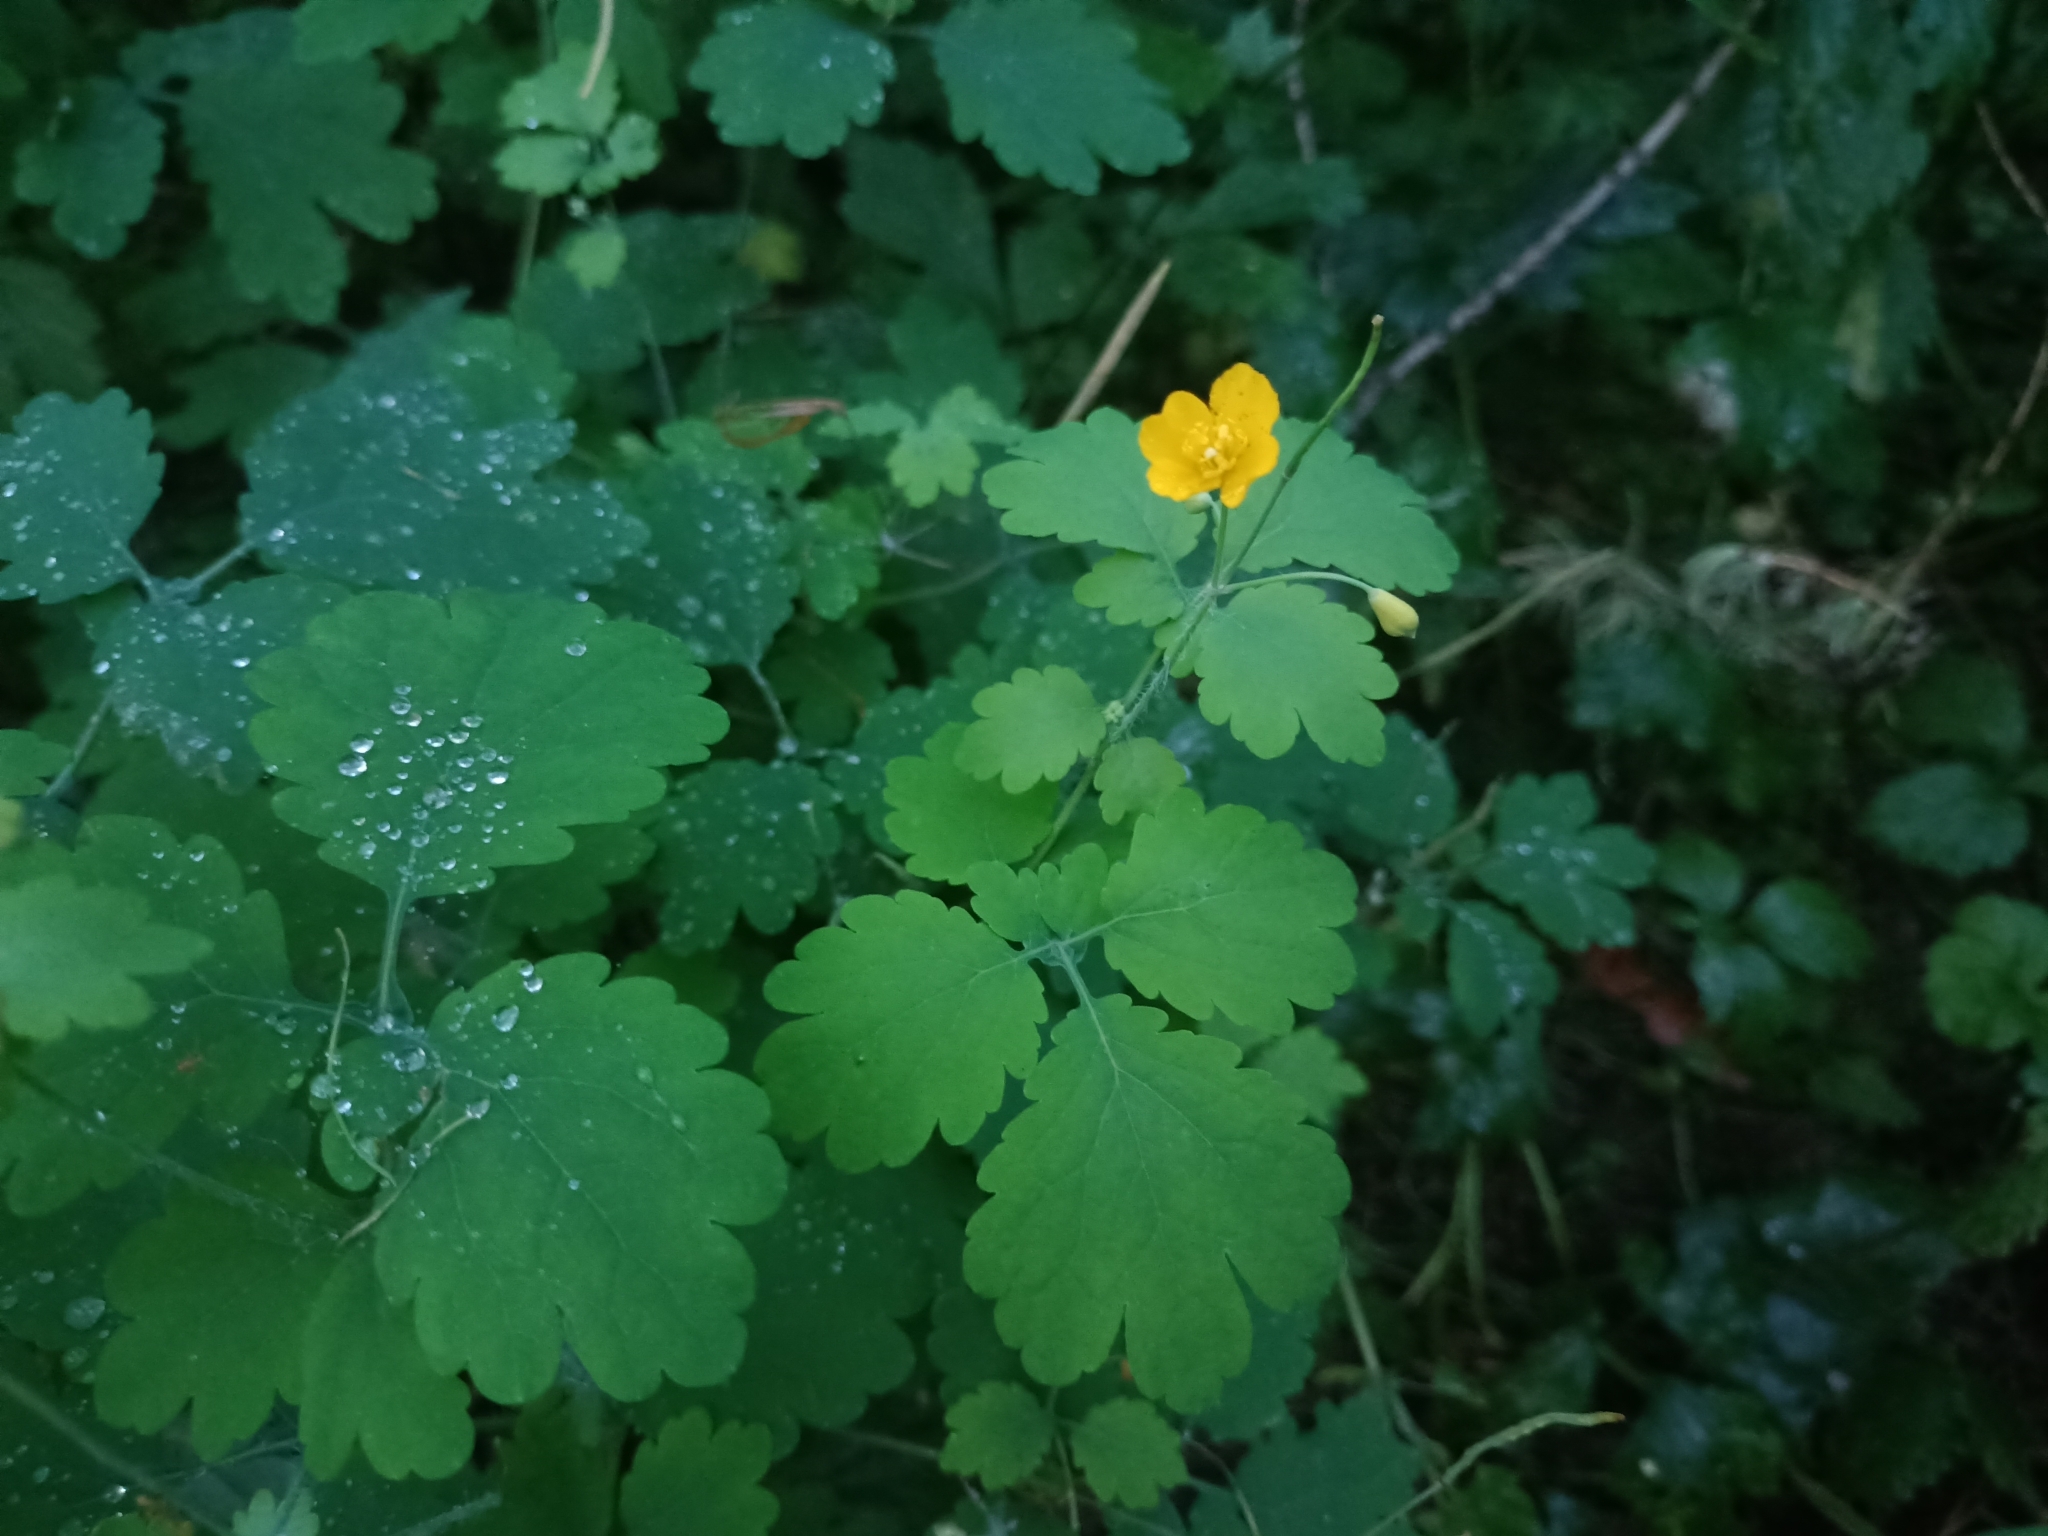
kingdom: Plantae
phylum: Tracheophyta
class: Magnoliopsida
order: Ranunculales
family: Papaveraceae
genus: Chelidonium
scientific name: Chelidonium majus
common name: Greater celandine
